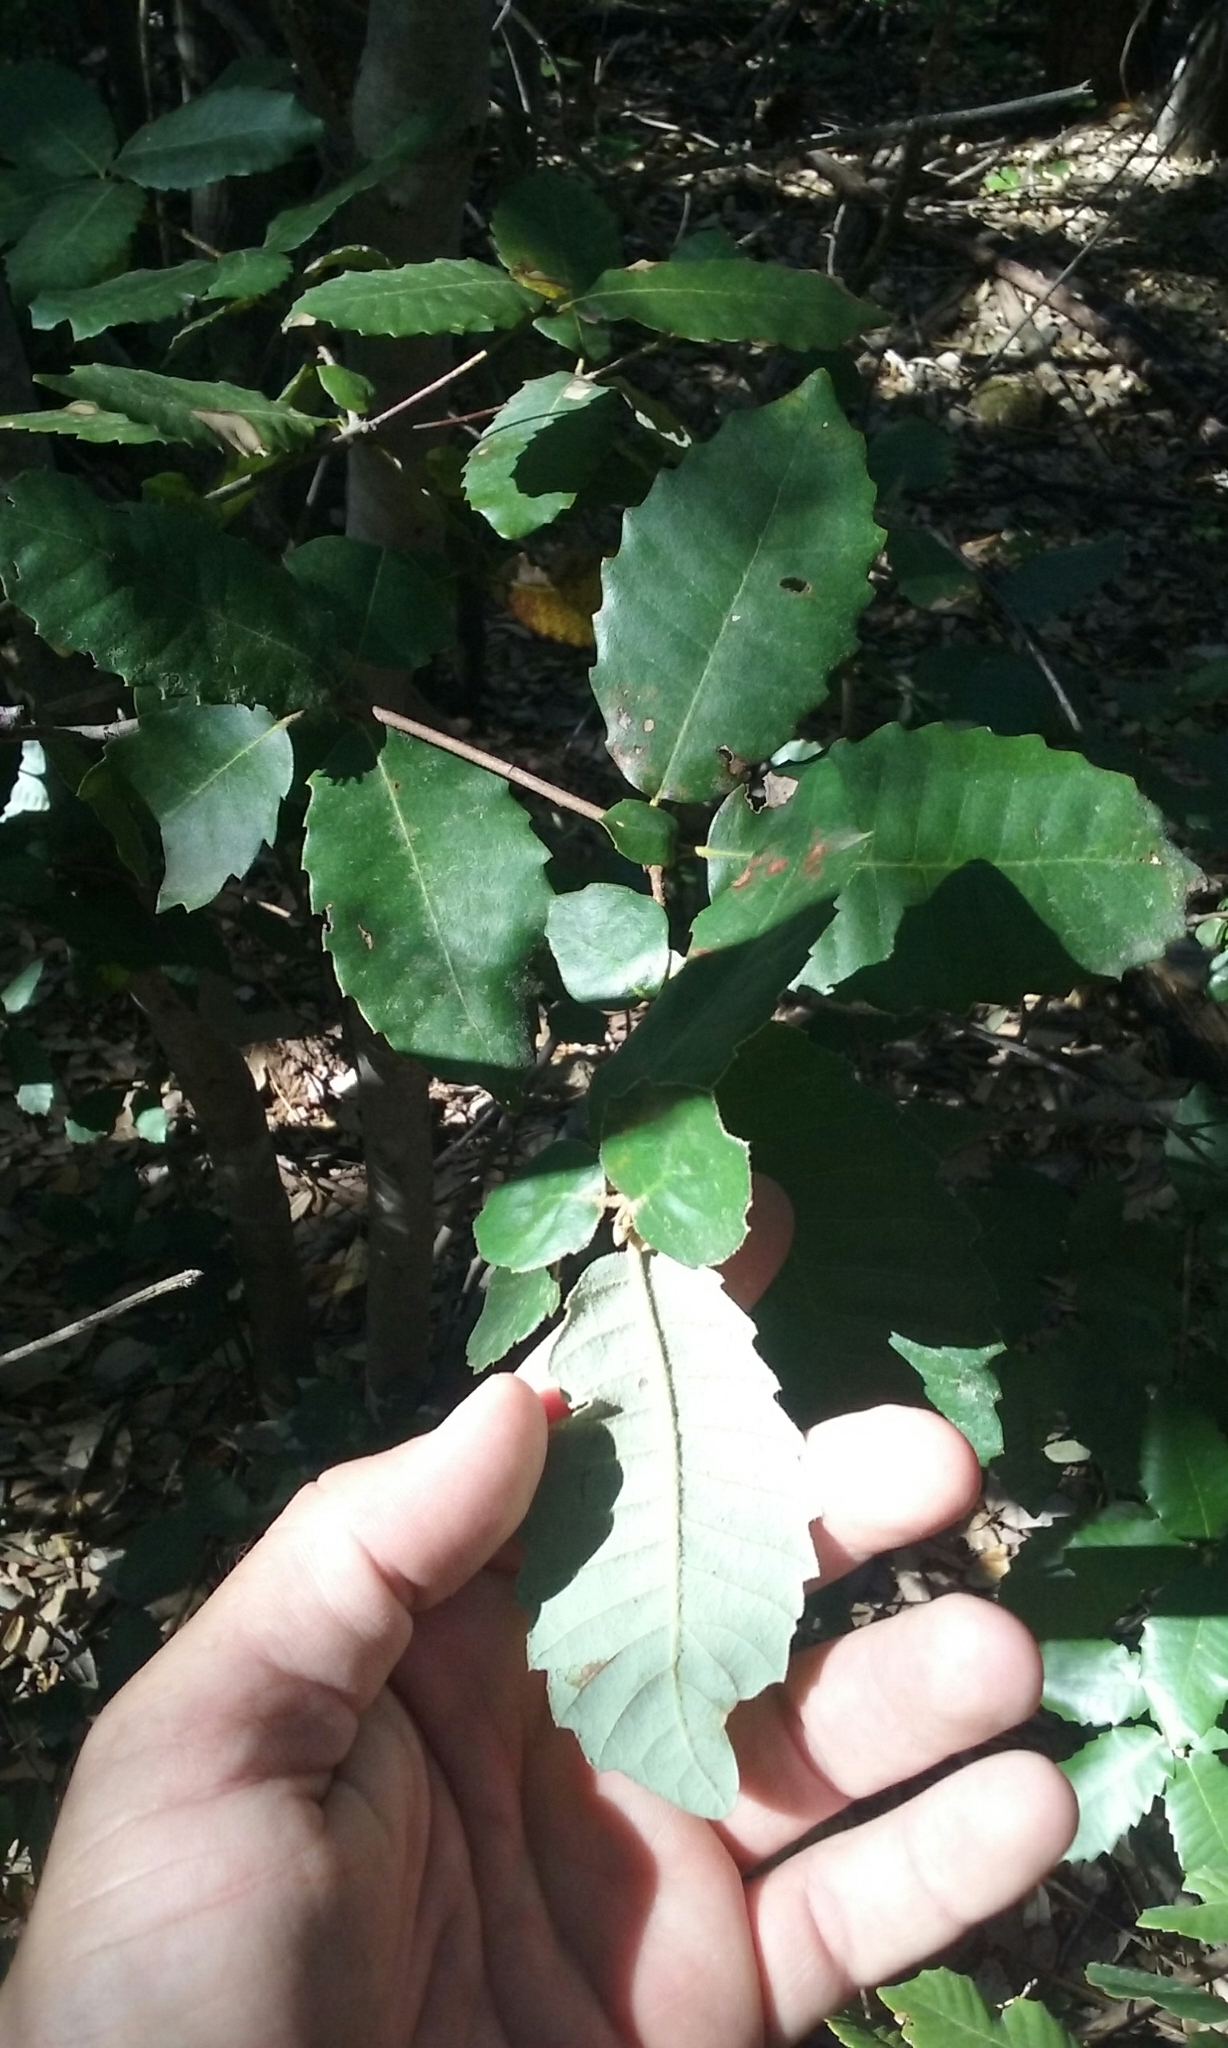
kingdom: Plantae
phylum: Tracheophyta
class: Magnoliopsida
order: Fagales
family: Fagaceae
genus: Notholithocarpus
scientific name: Notholithocarpus densiflorus
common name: Tan bark oak
